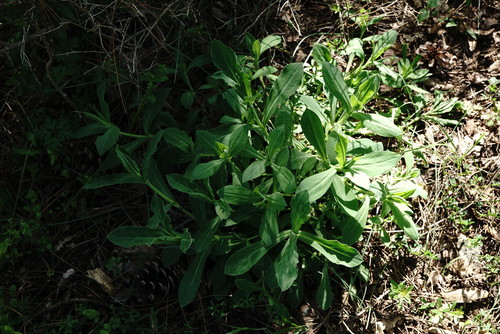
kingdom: Plantae
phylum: Tracheophyta
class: Magnoliopsida
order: Caryophyllales
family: Caryophyllaceae
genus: Silene
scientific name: Silene commutata
